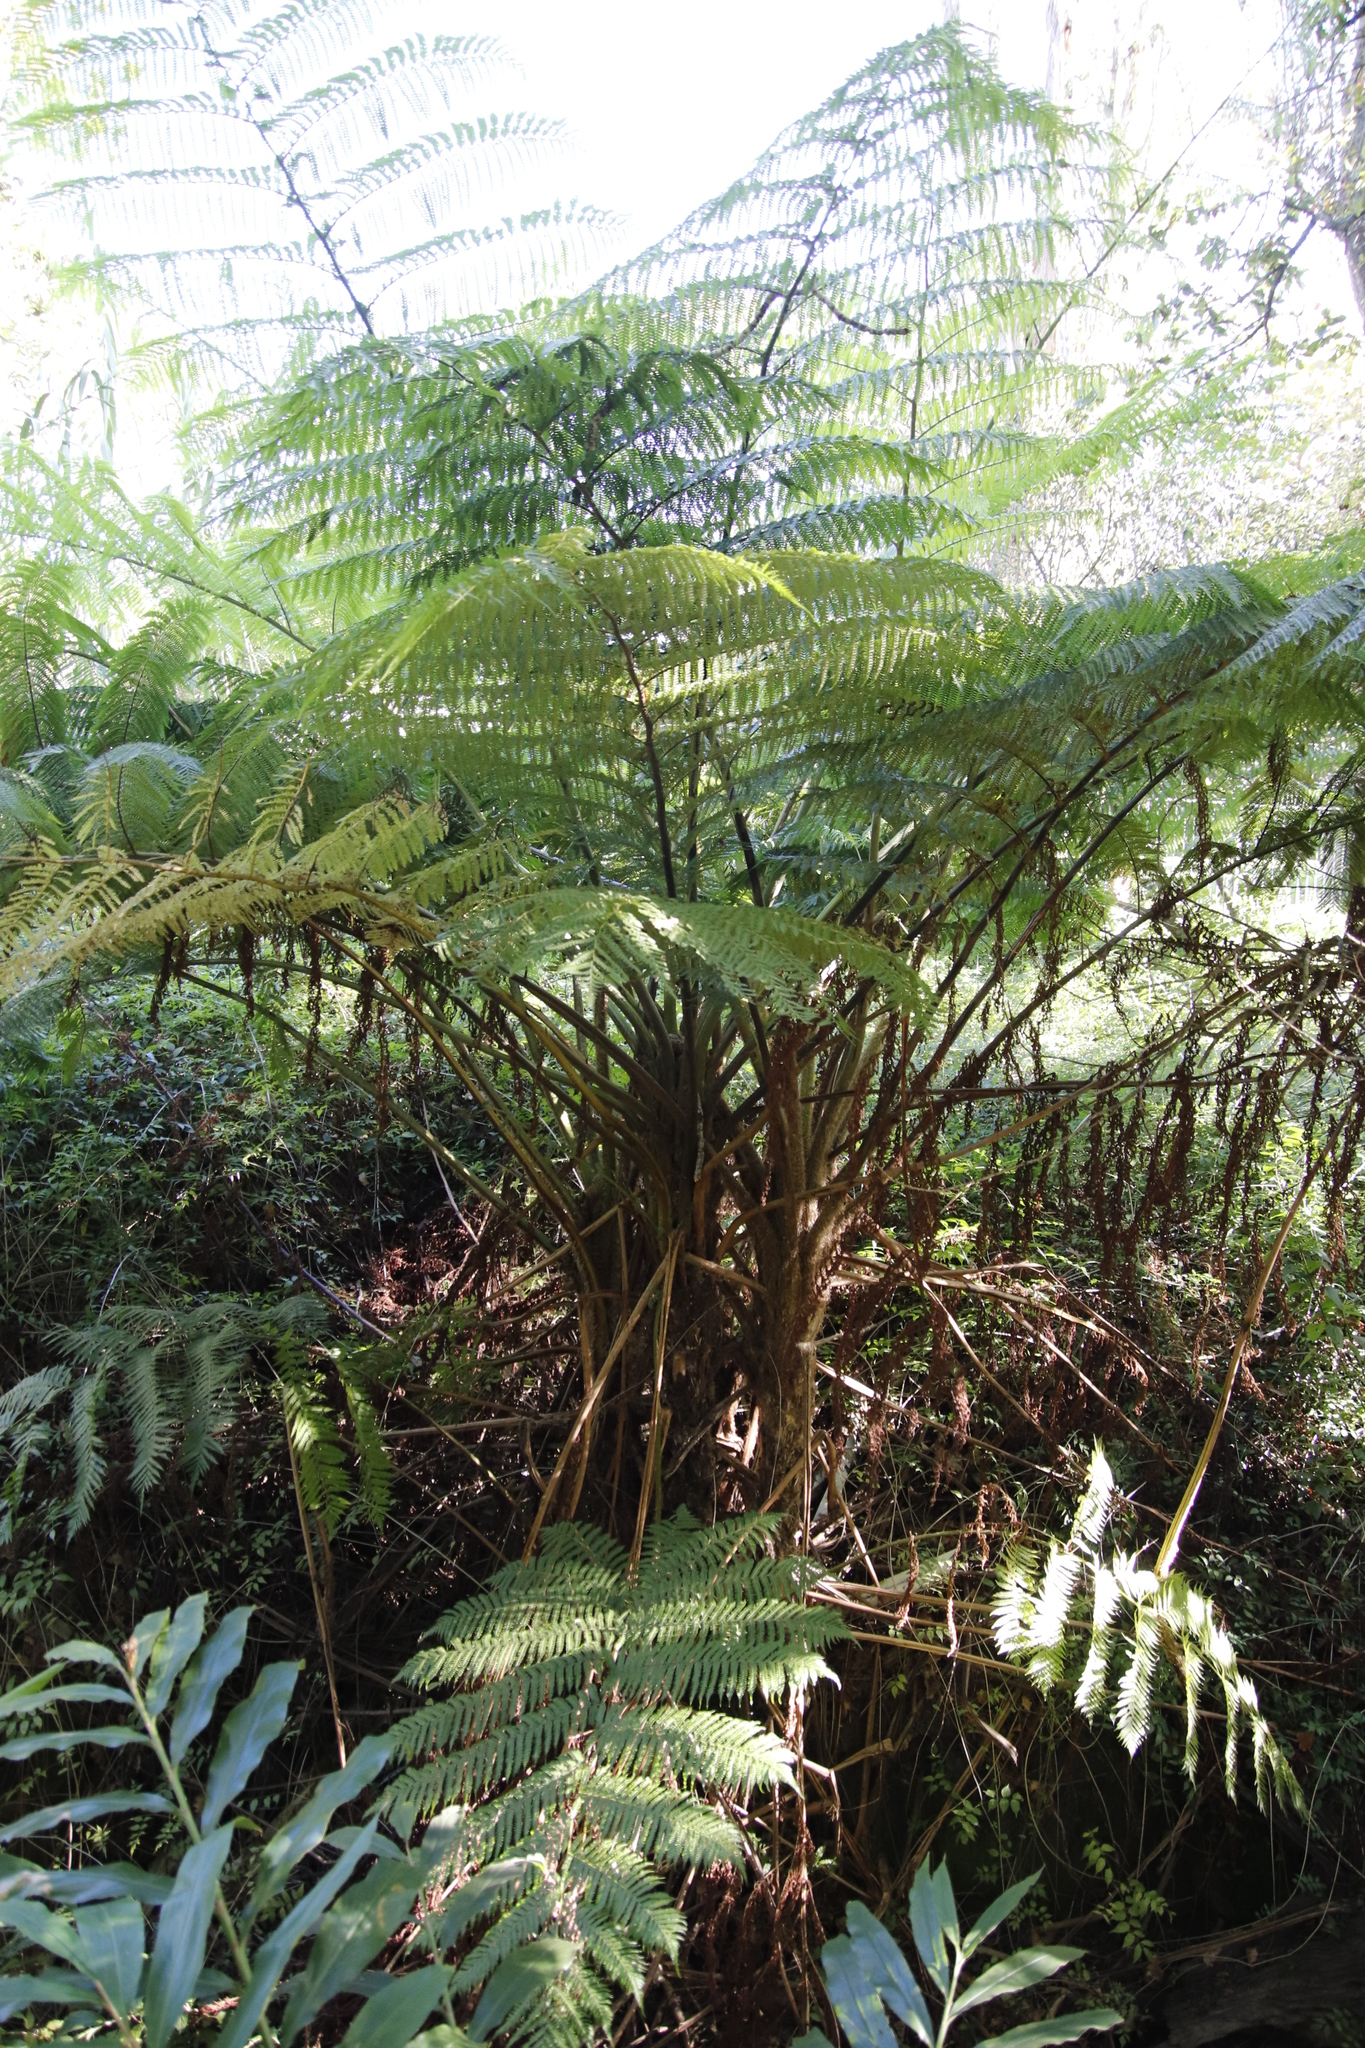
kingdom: Plantae
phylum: Tracheophyta
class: Polypodiopsida
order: Cyatheales
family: Cyatheaceae
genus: Sphaeropteris
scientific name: Sphaeropteris cooperi
